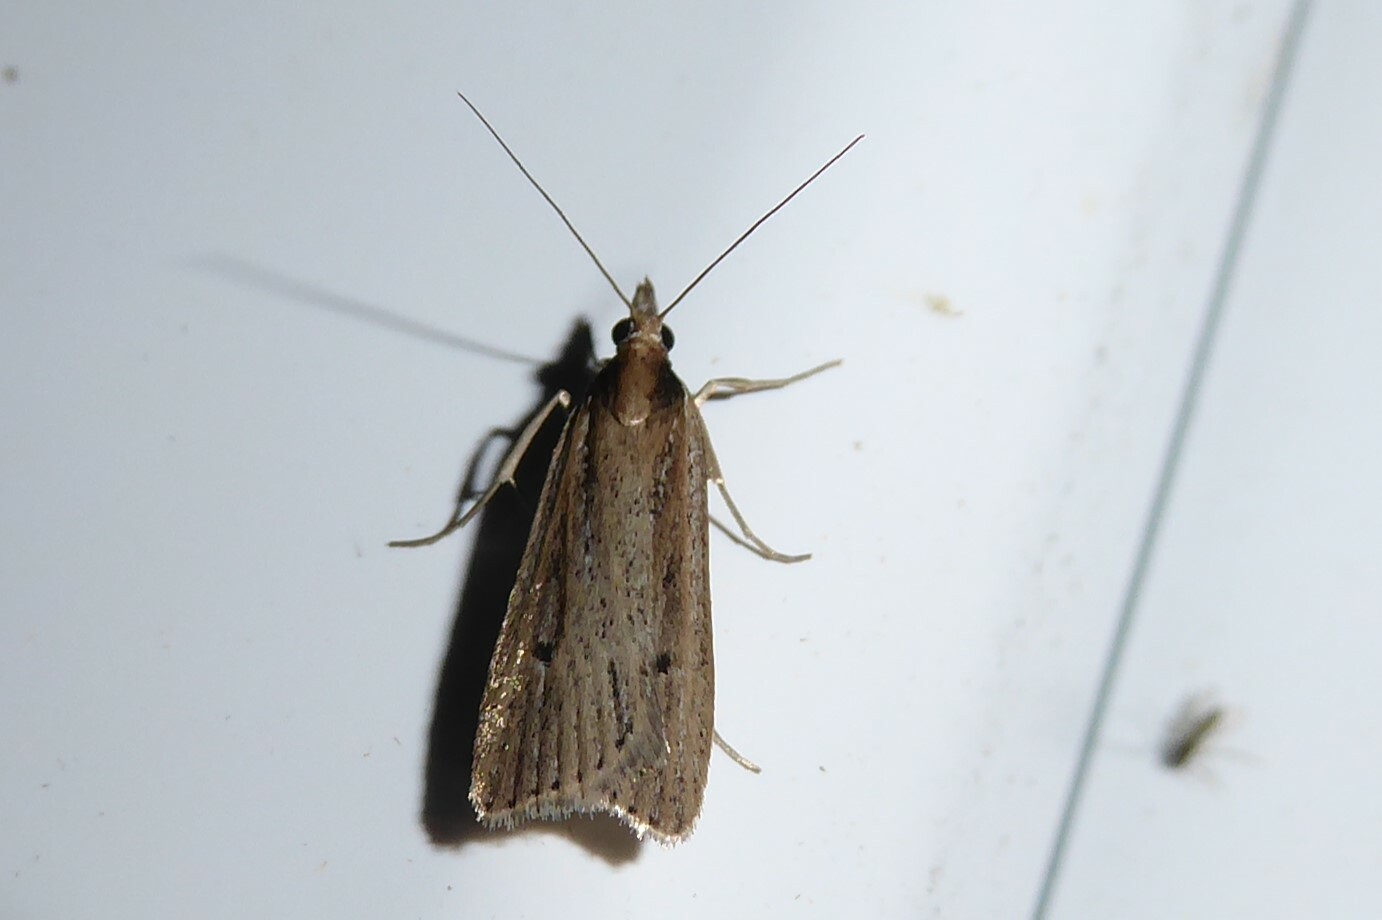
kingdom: Animalia
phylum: Arthropoda
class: Insecta
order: Lepidoptera
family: Crambidae
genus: Eudonia
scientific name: Eudonia sabulosella
